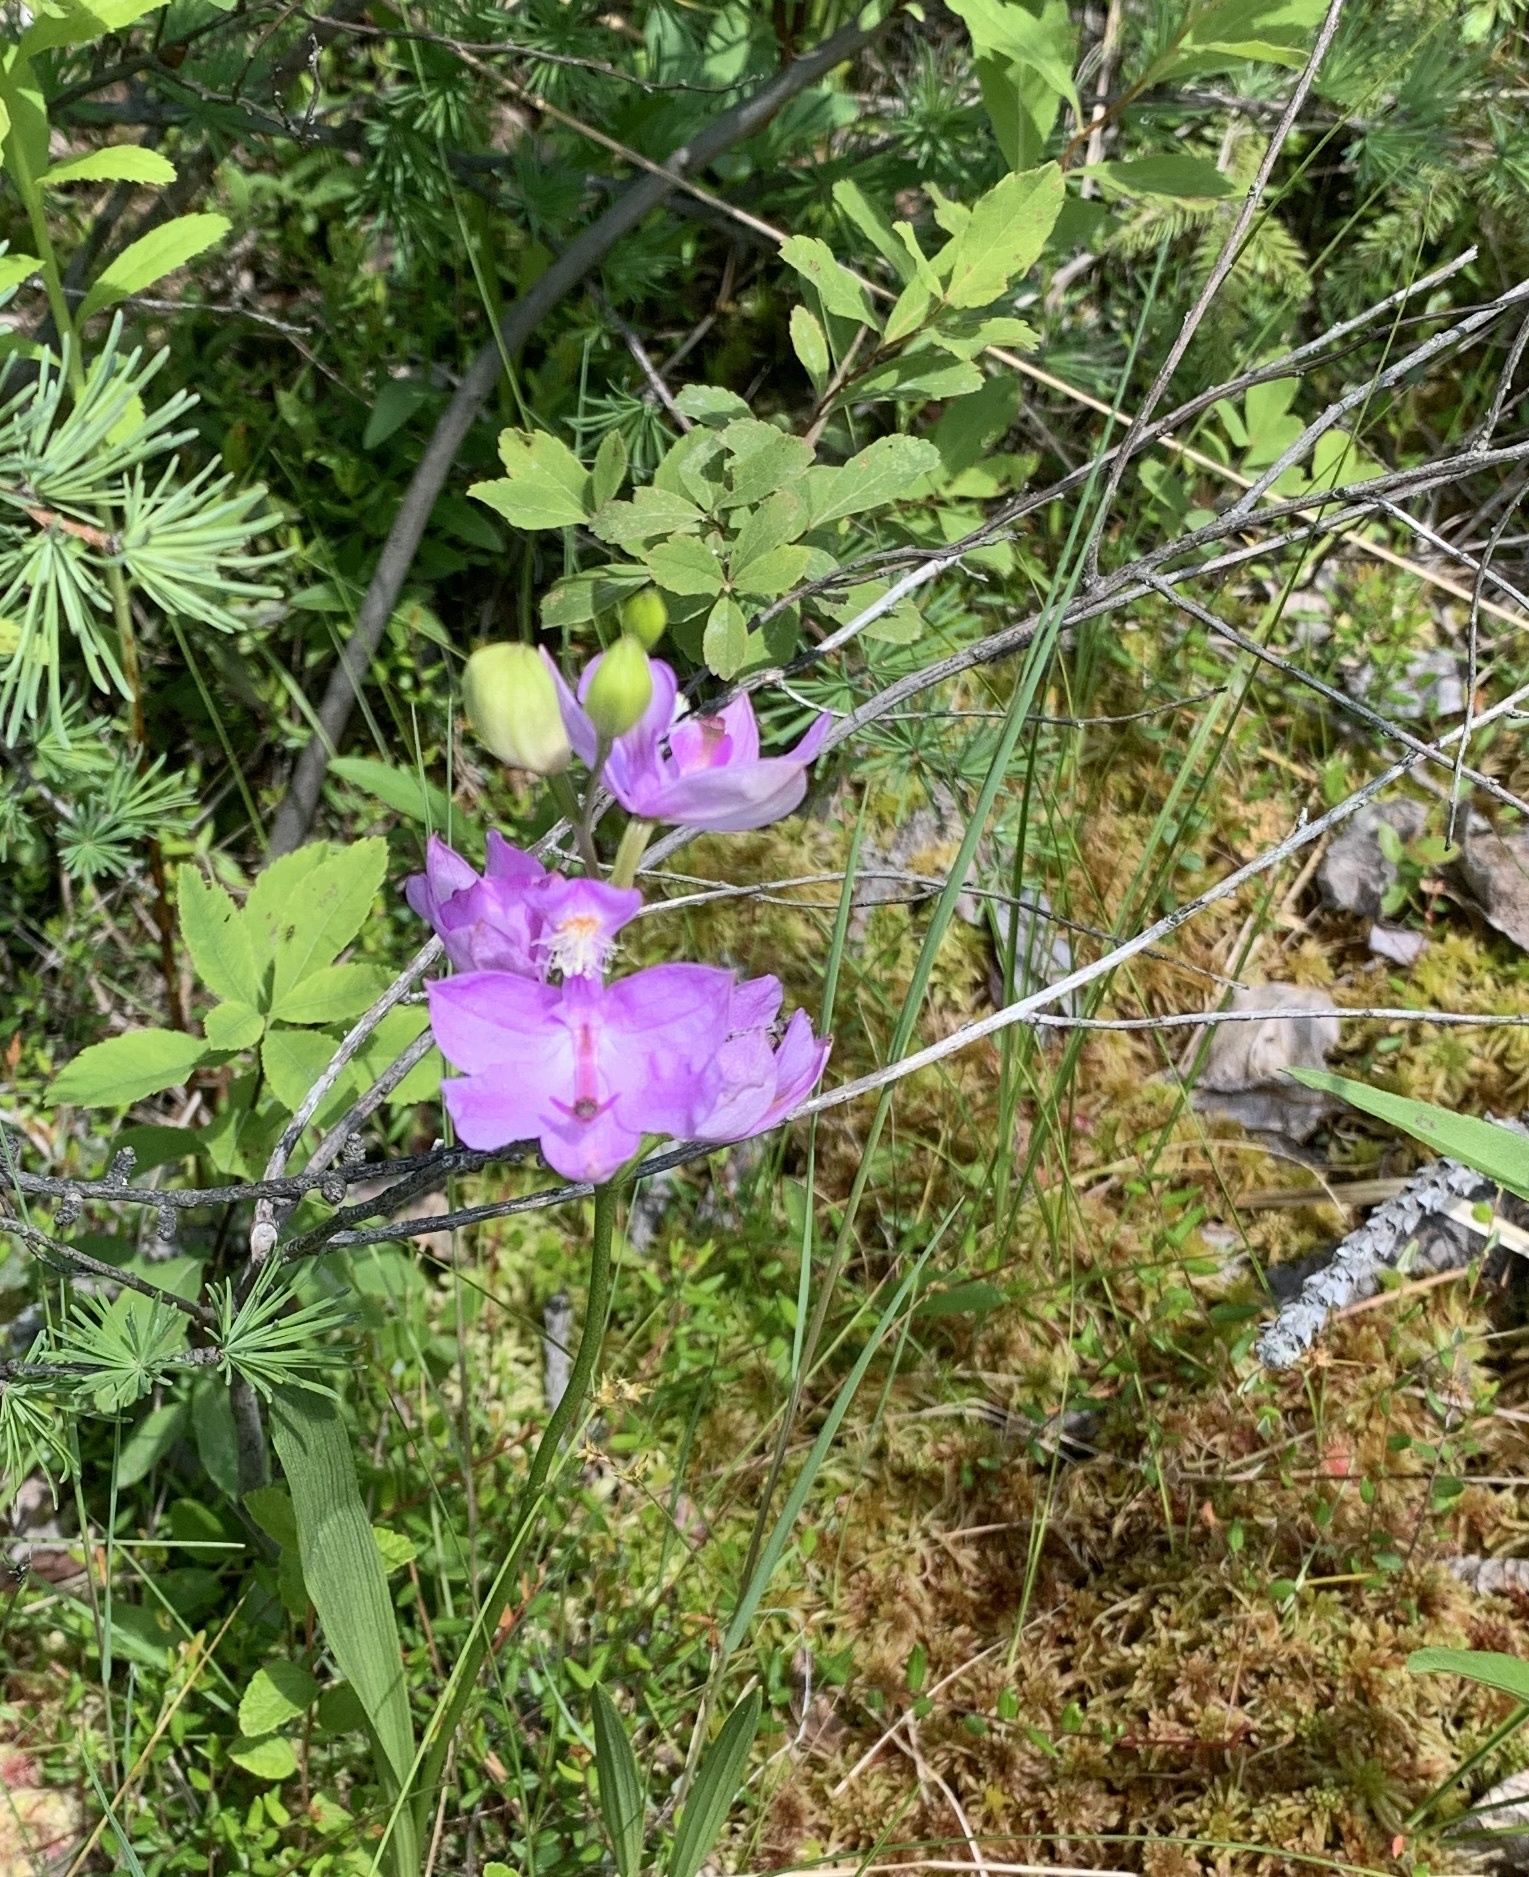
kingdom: Plantae
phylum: Tracheophyta
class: Liliopsida
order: Asparagales
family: Orchidaceae
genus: Calopogon
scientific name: Calopogon tuberosus
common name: Grass-pink
